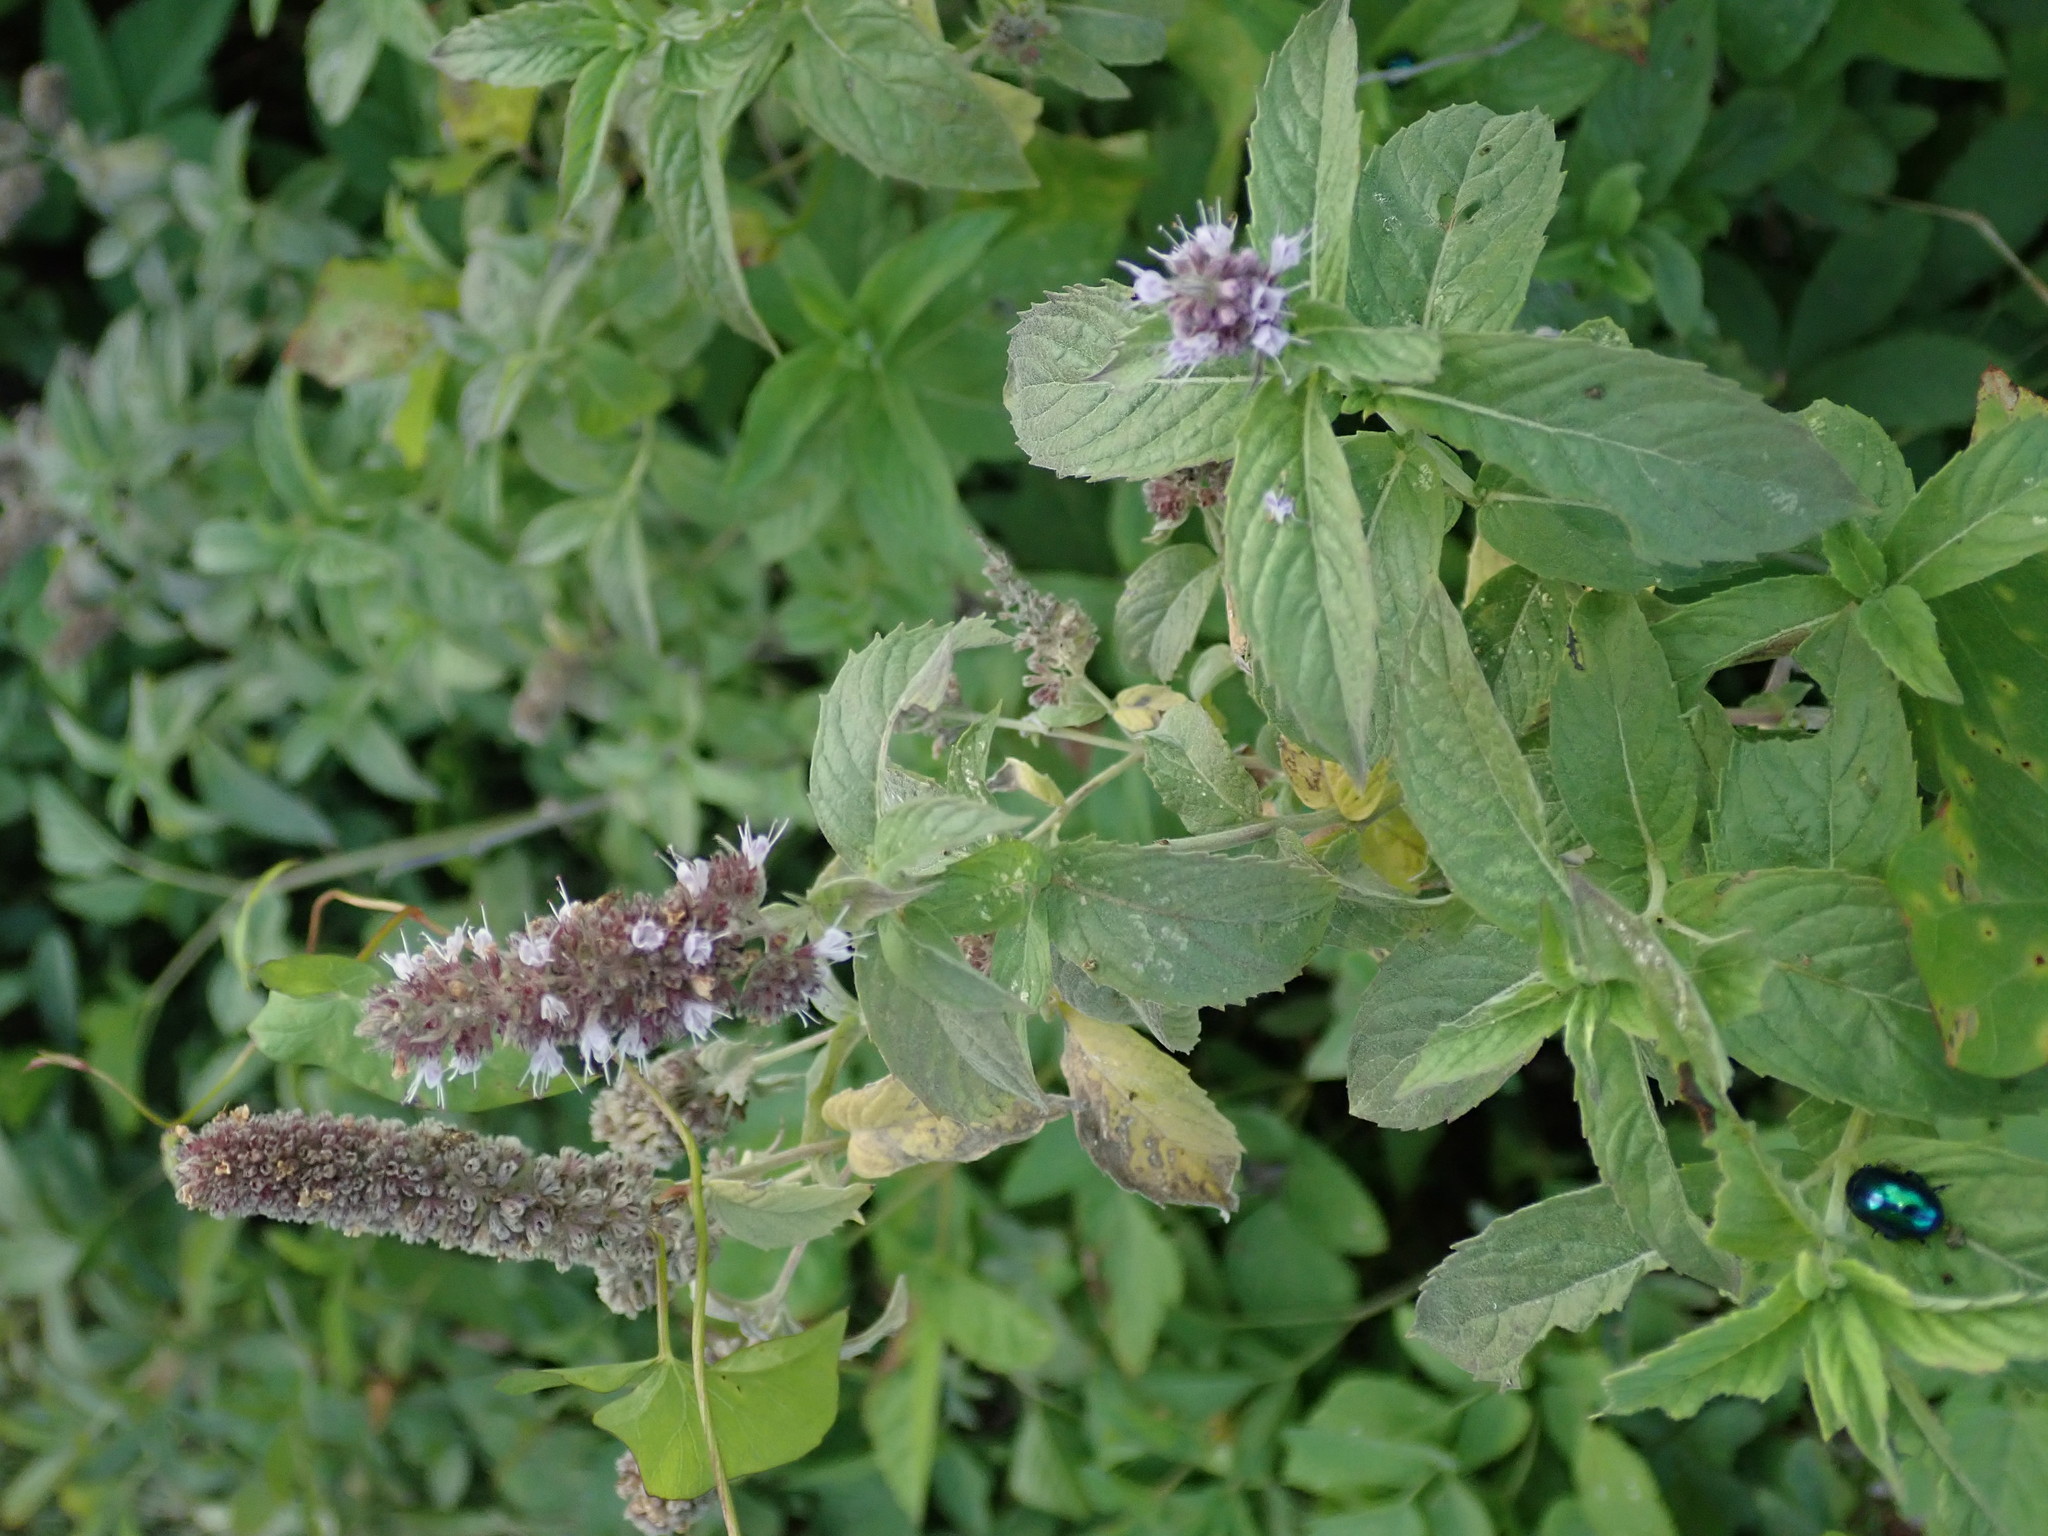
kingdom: Plantae
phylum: Tracheophyta
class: Magnoliopsida
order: Lamiales
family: Lamiaceae
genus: Mentha
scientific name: Mentha longifolia
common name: Horse mint
